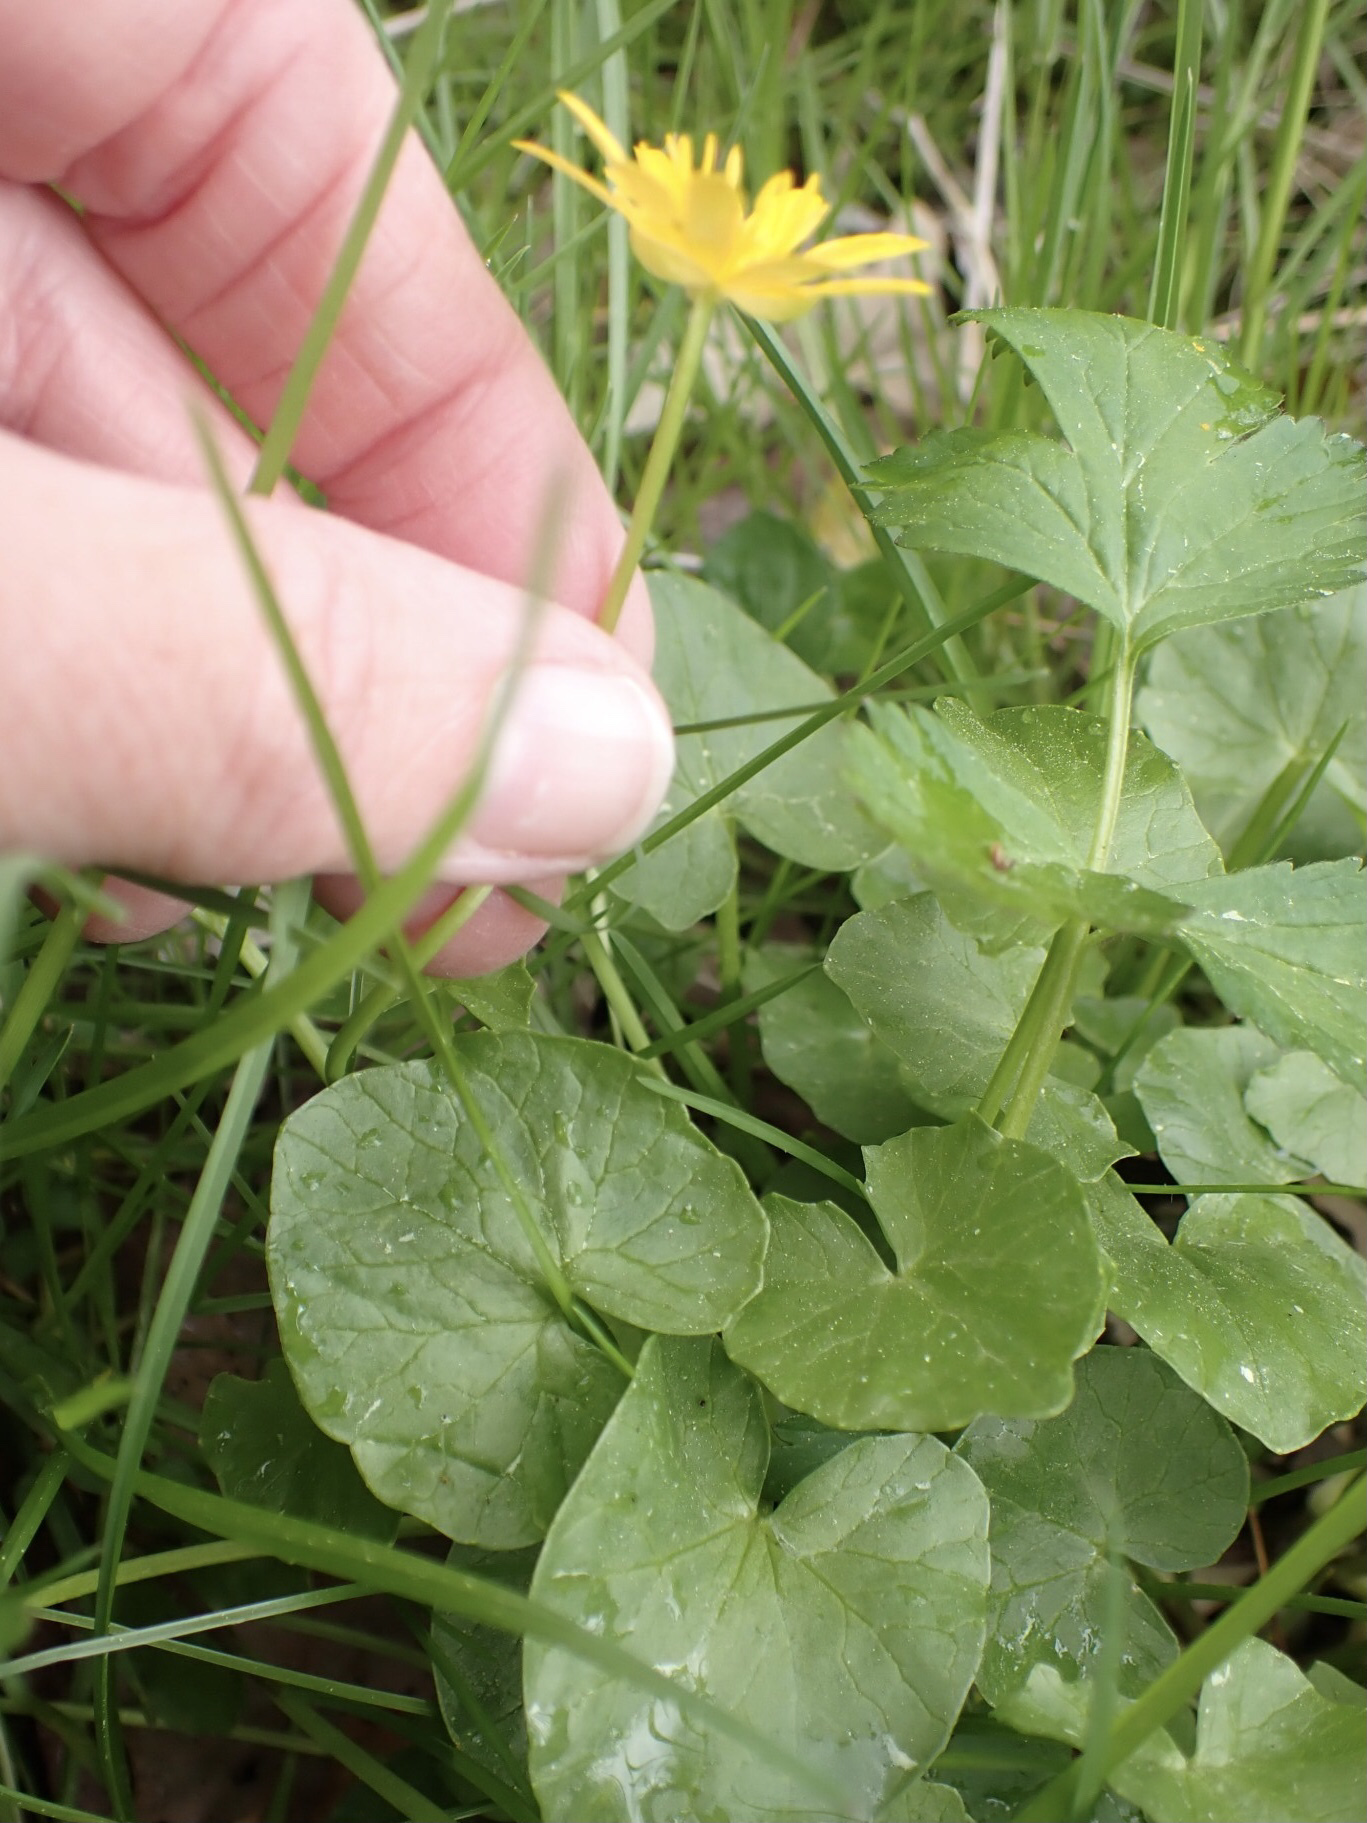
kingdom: Plantae
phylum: Tracheophyta
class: Magnoliopsida
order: Ranunculales
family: Ranunculaceae
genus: Ficaria
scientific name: Ficaria verna
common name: Lesser celandine
